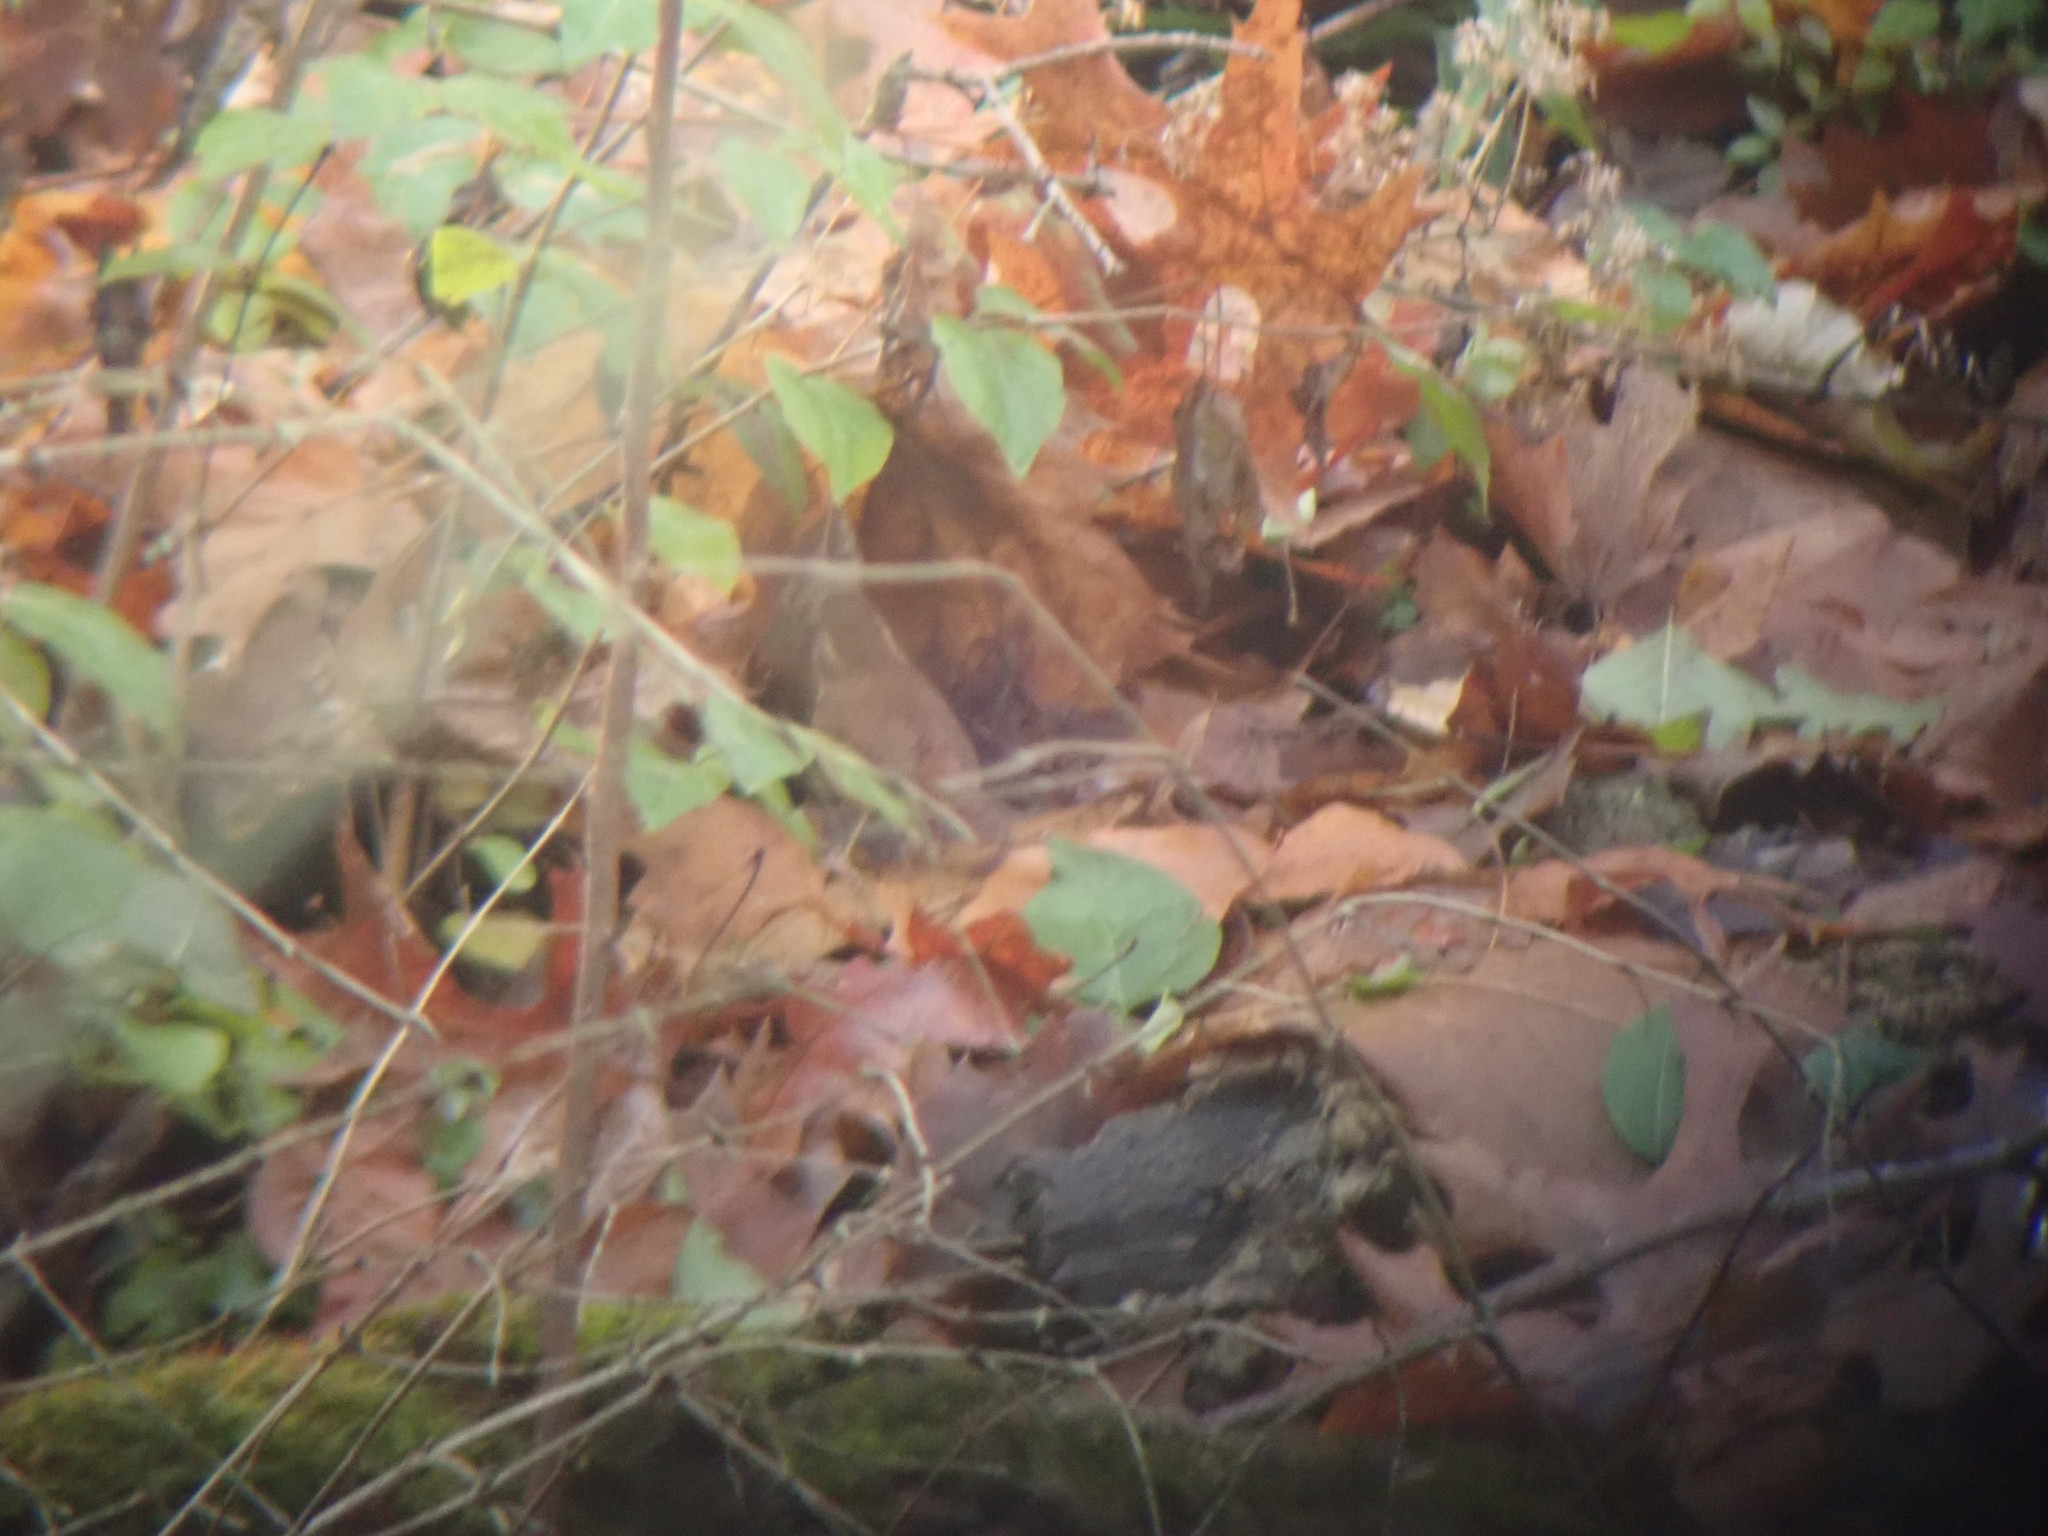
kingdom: Animalia
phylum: Chordata
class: Aves
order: Passeriformes
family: Troglodytidae
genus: Thryothorus
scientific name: Thryothorus ludovicianus
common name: Carolina wren
